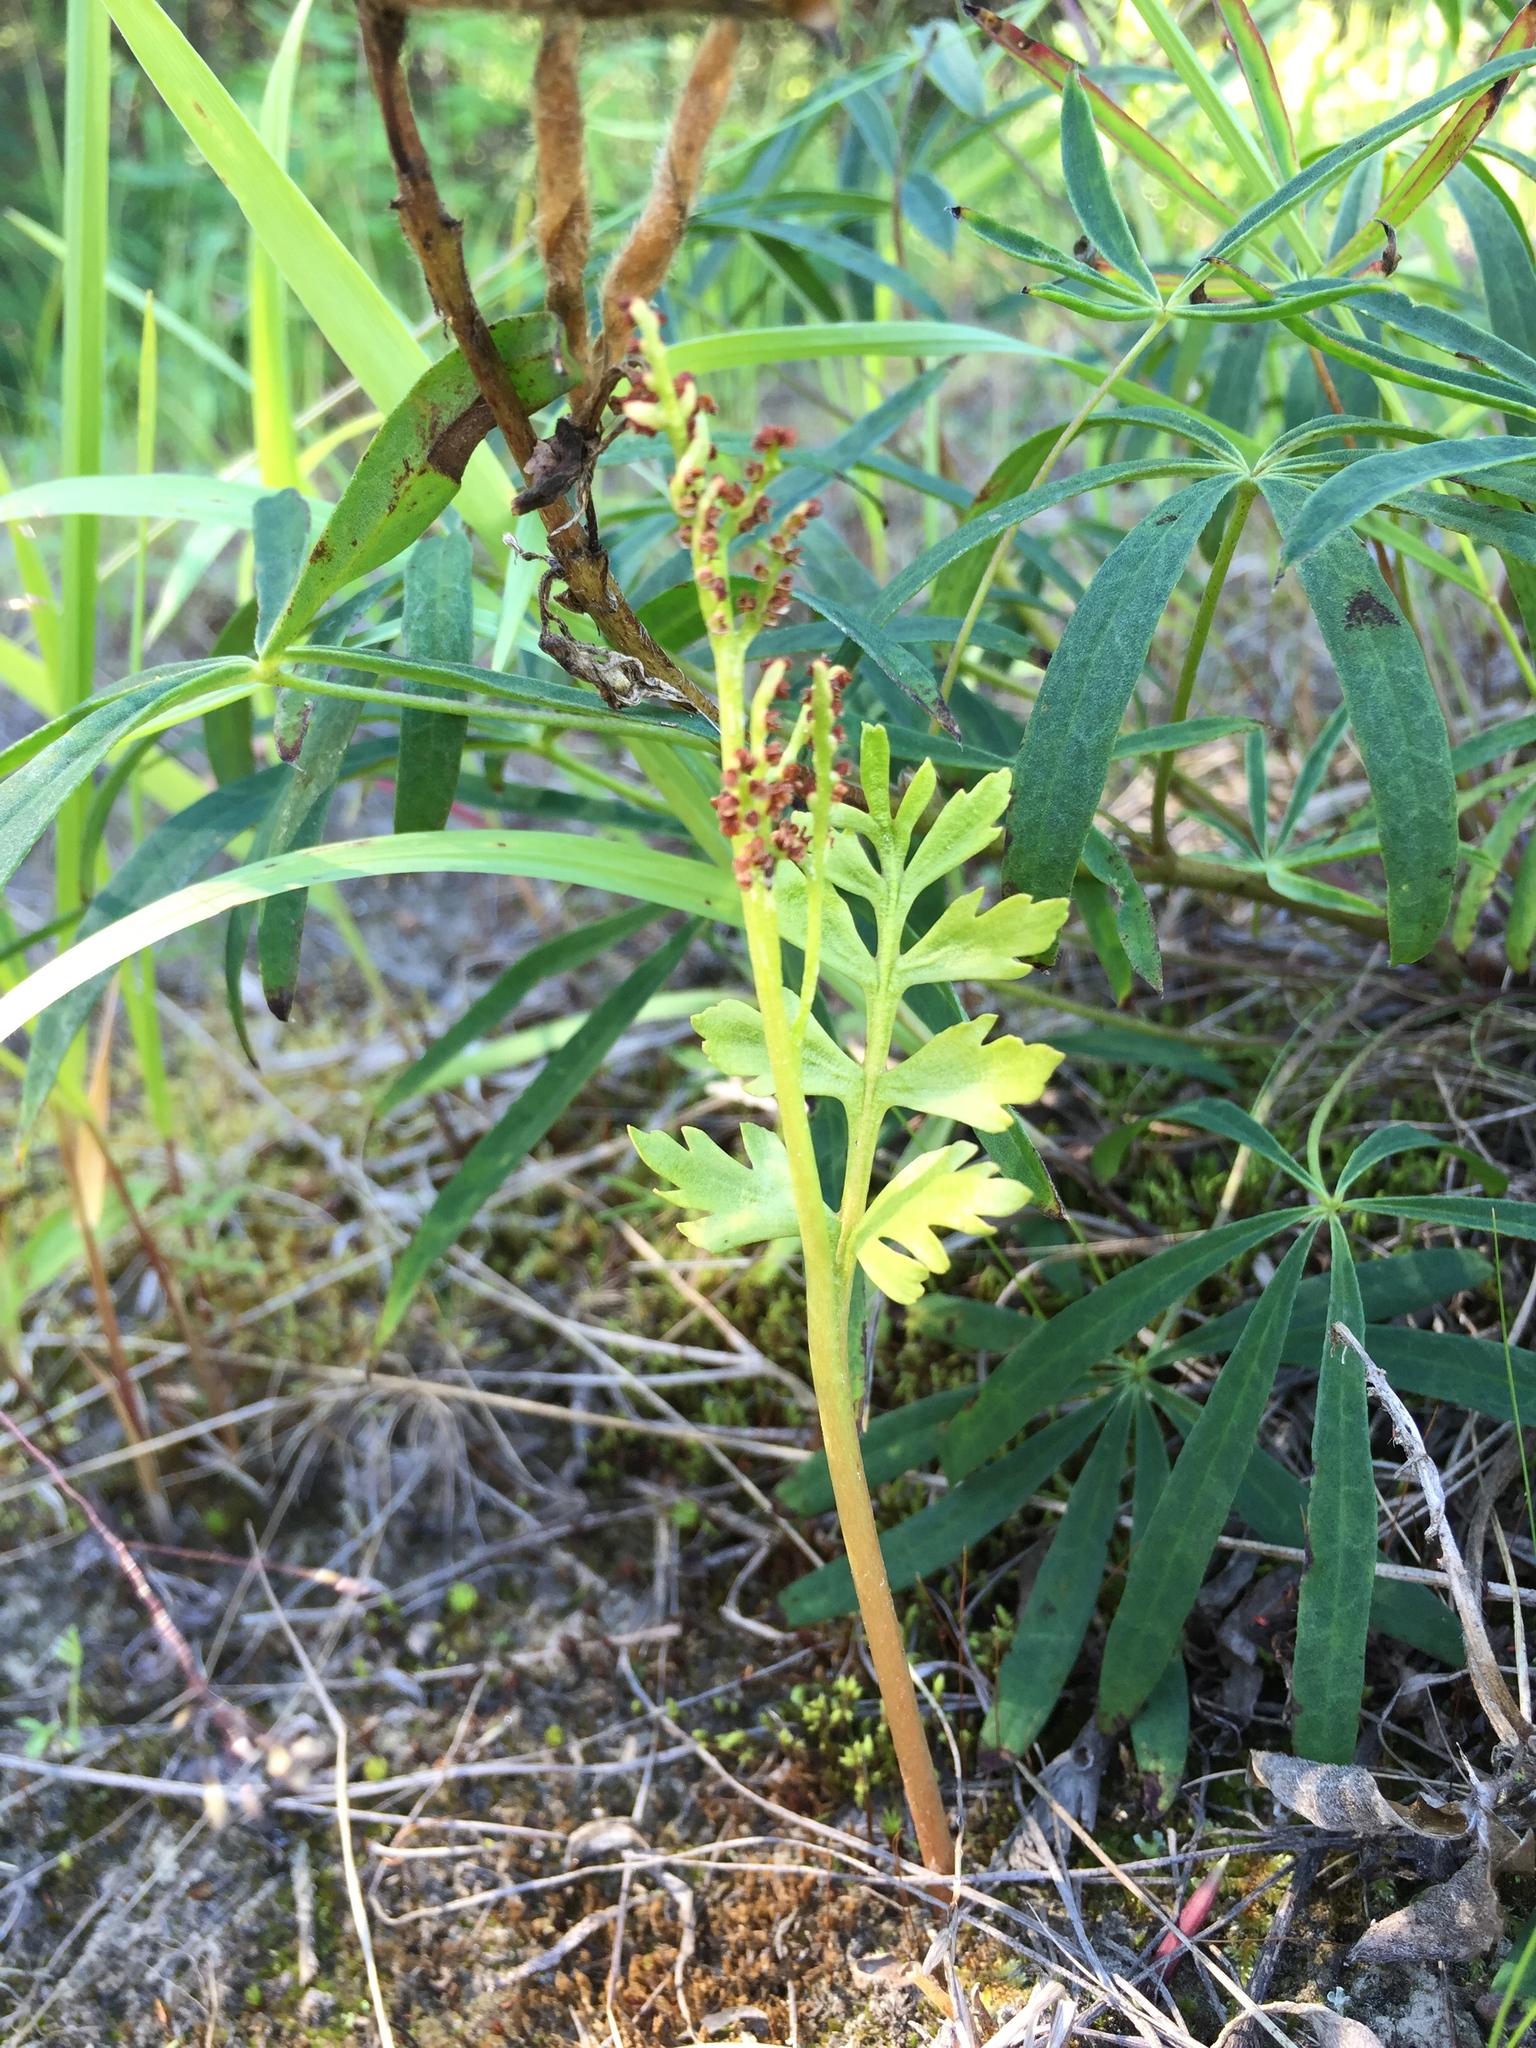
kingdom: Plantae
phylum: Tracheophyta
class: Polypodiopsida
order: Ophioglossales
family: Ophioglossaceae
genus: Botrychium
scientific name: Botrychium alaskense
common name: Alaska moonwort
